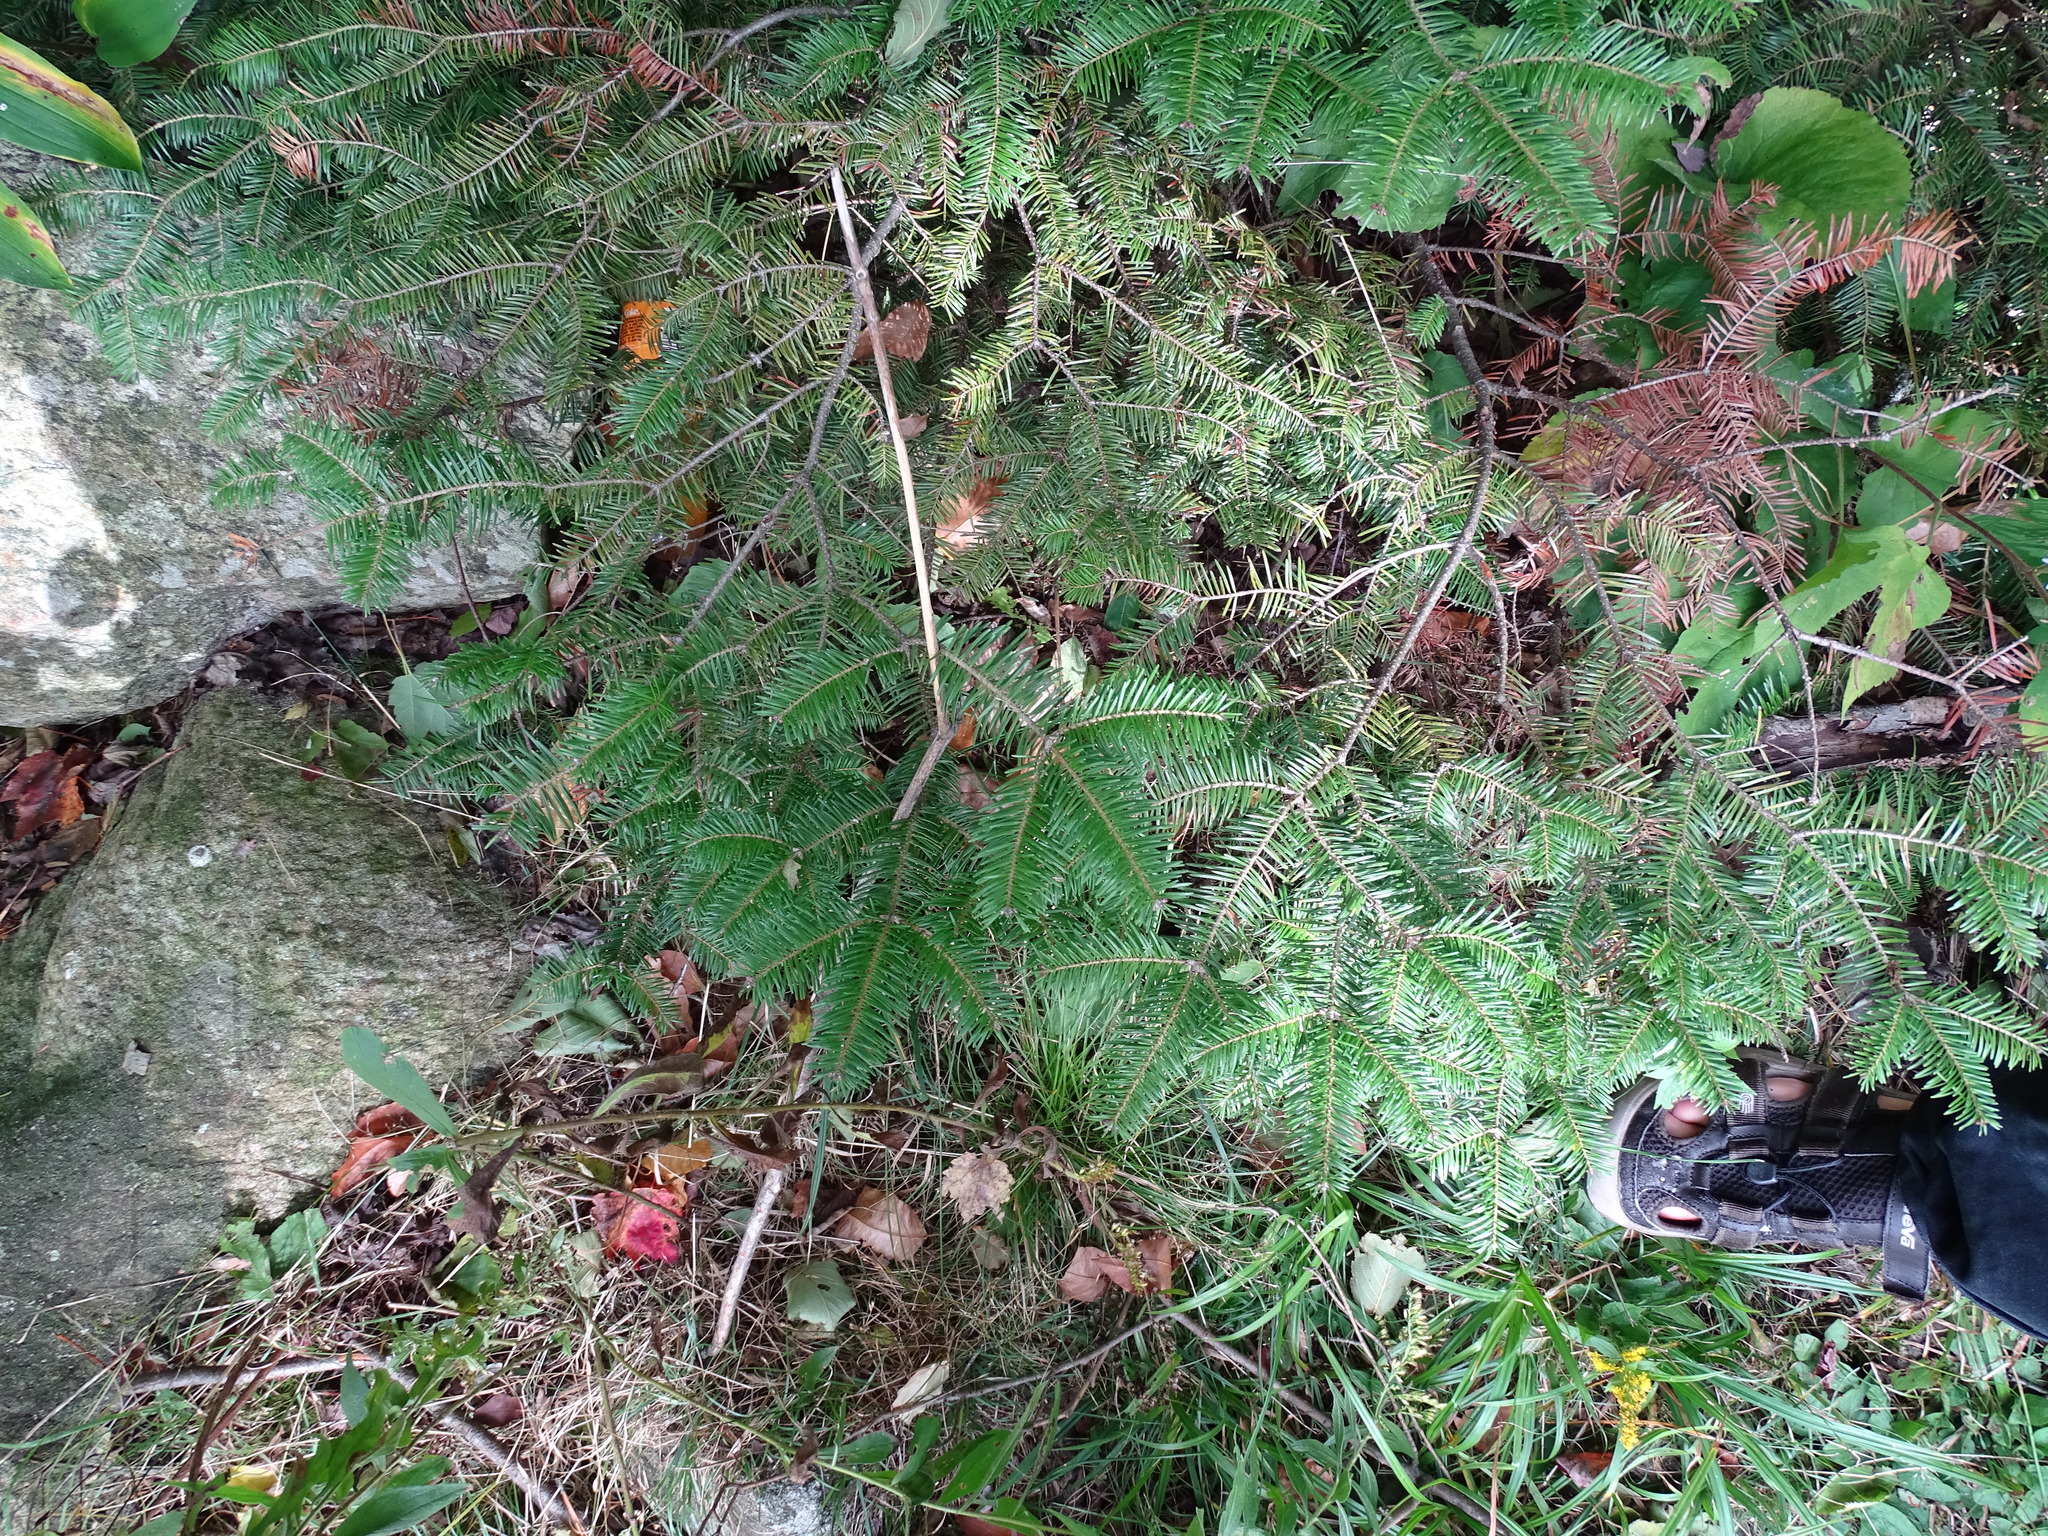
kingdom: Plantae
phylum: Tracheophyta
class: Pinopsida
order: Pinales
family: Pinaceae
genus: Abies
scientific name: Abies balsamea
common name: Balsam fir
